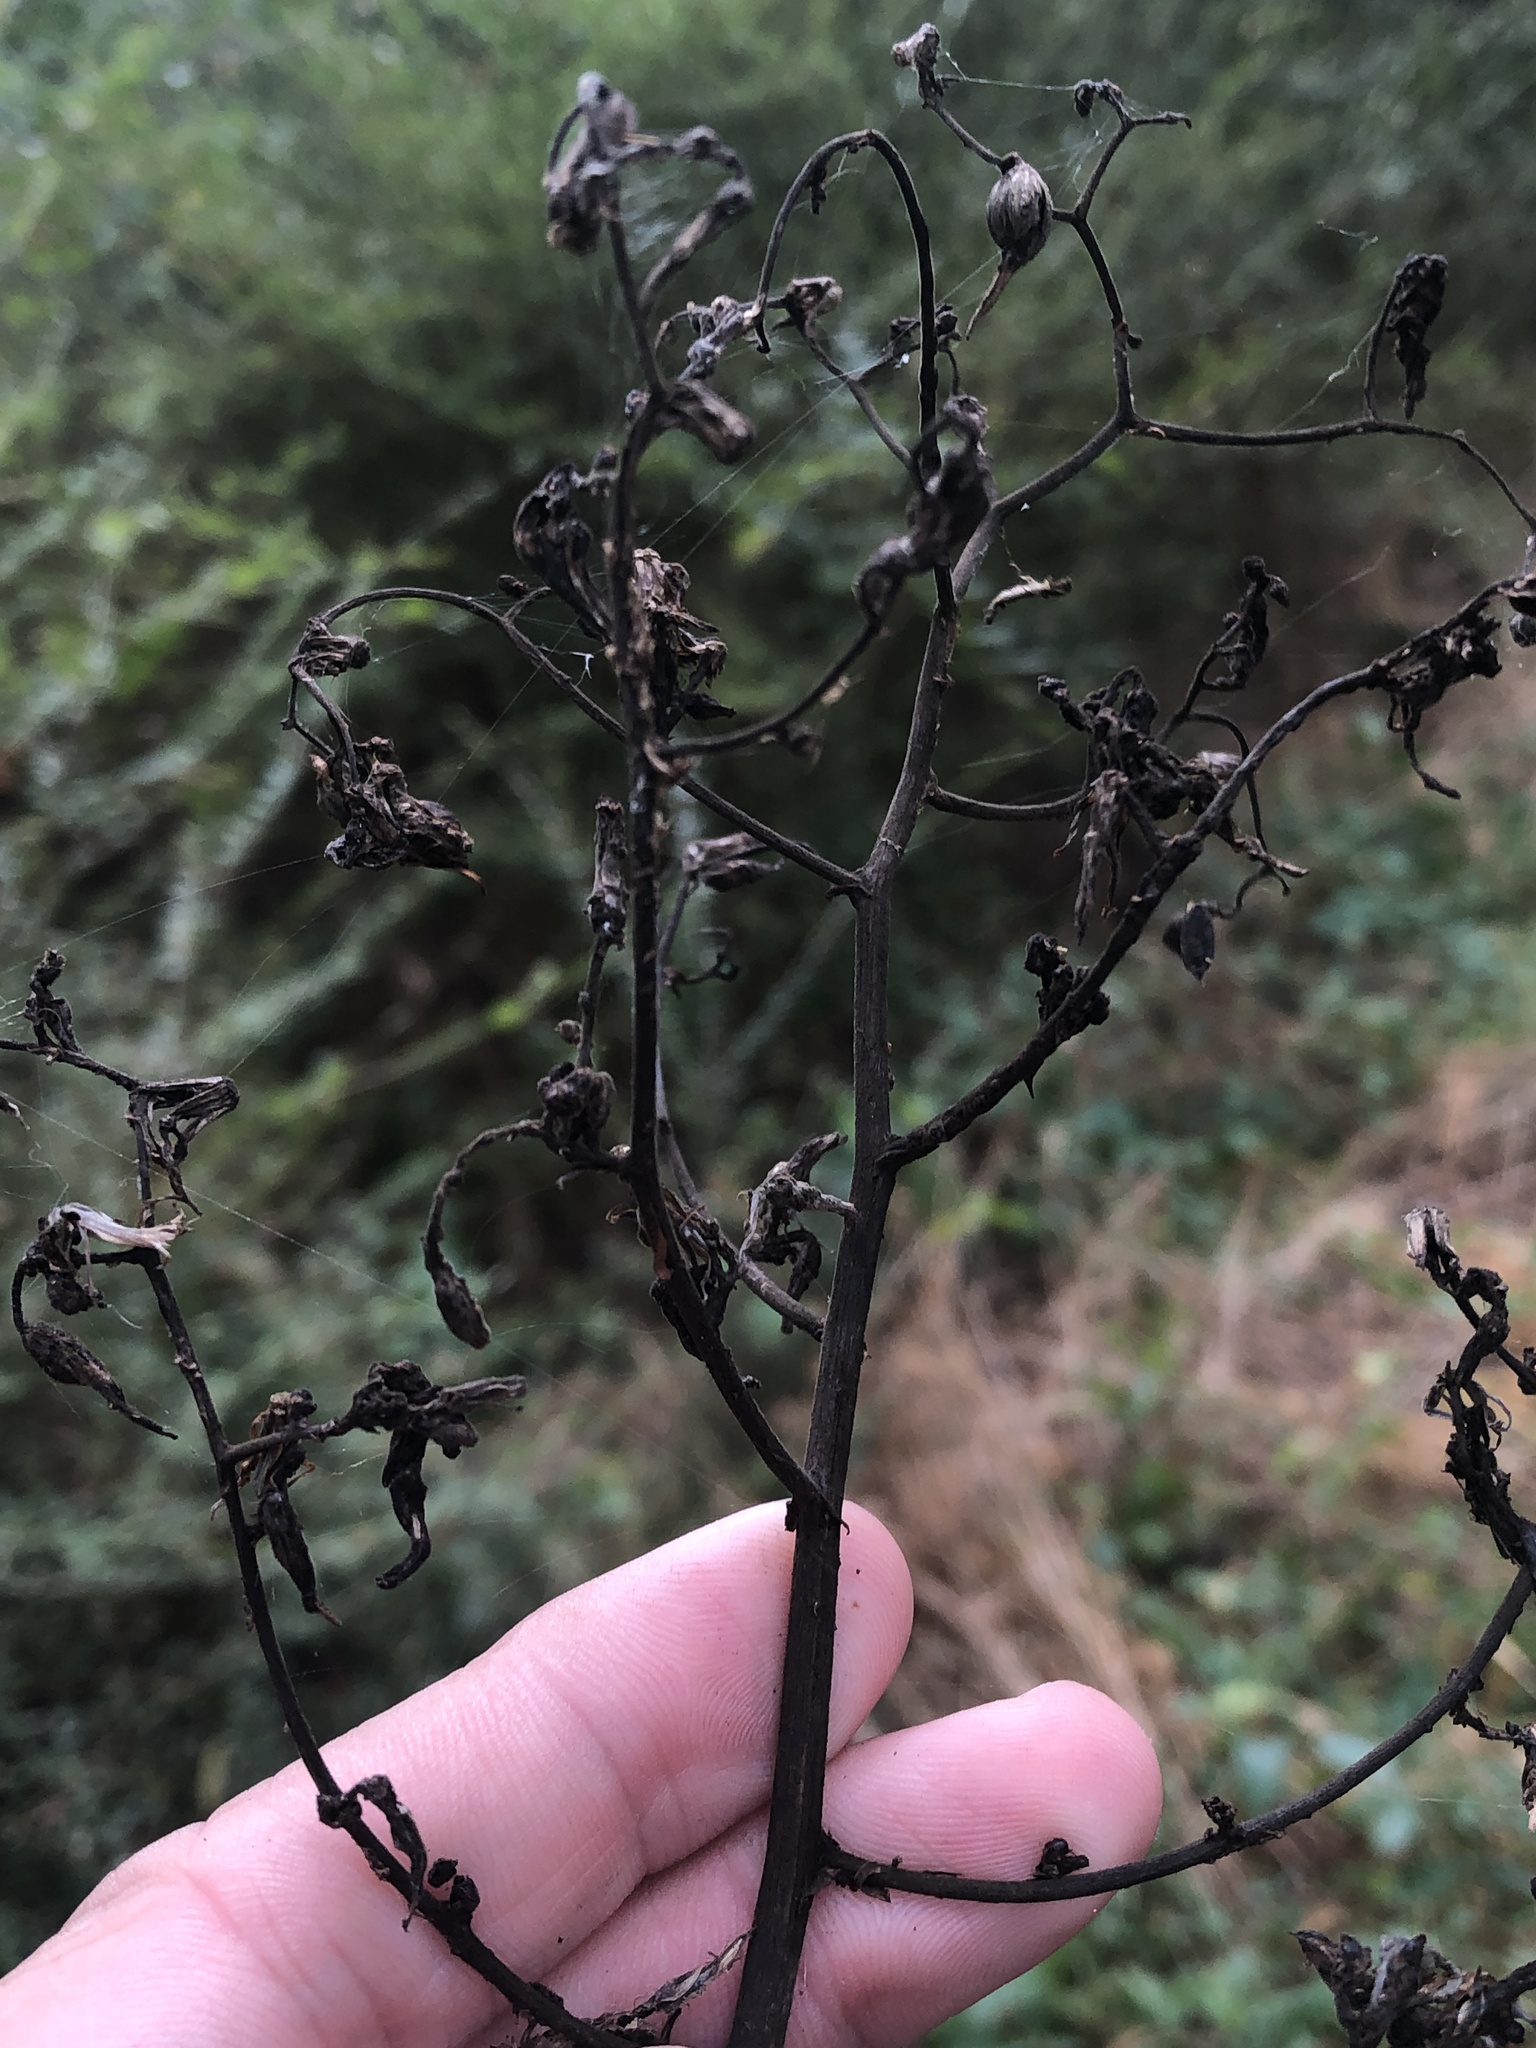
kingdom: Plantae
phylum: Tracheophyta
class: Magnoliopsida
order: Asterales
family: Asteraceae
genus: Lactuca
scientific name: Lactuca floridana
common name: Woodland lettuce
